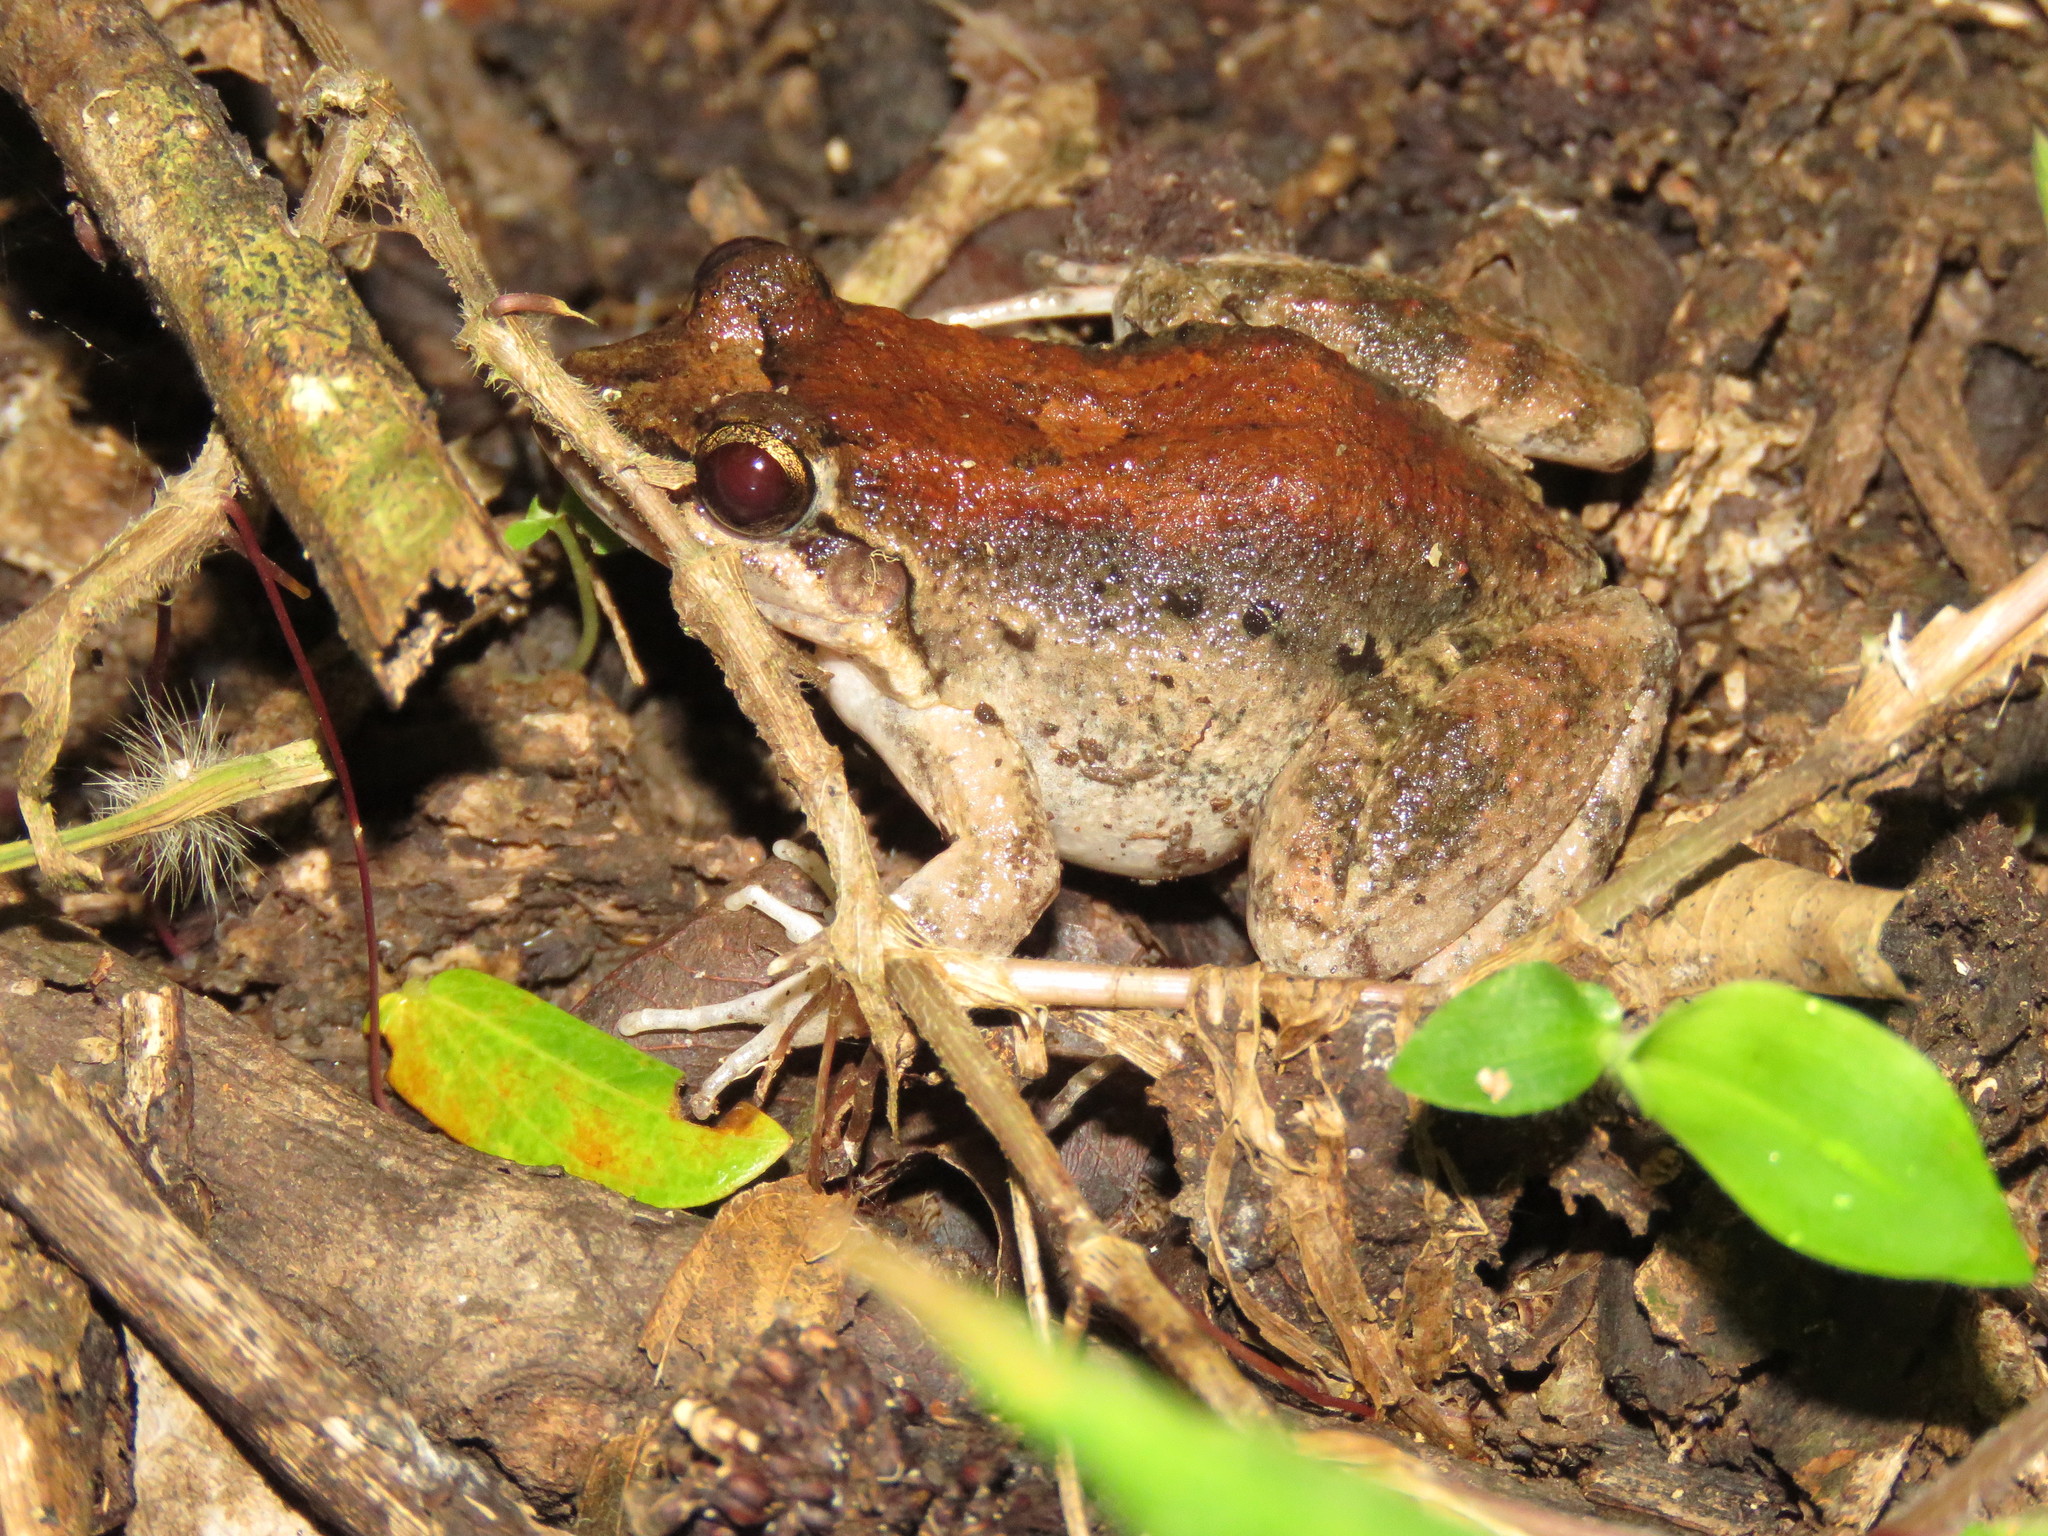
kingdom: Animalia
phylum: Chordata
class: Amphibia
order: Anura
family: Leptodactylidae
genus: Leptodactylus
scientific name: Leptodactylus leptodactyloides
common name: Common thin-toed frog
